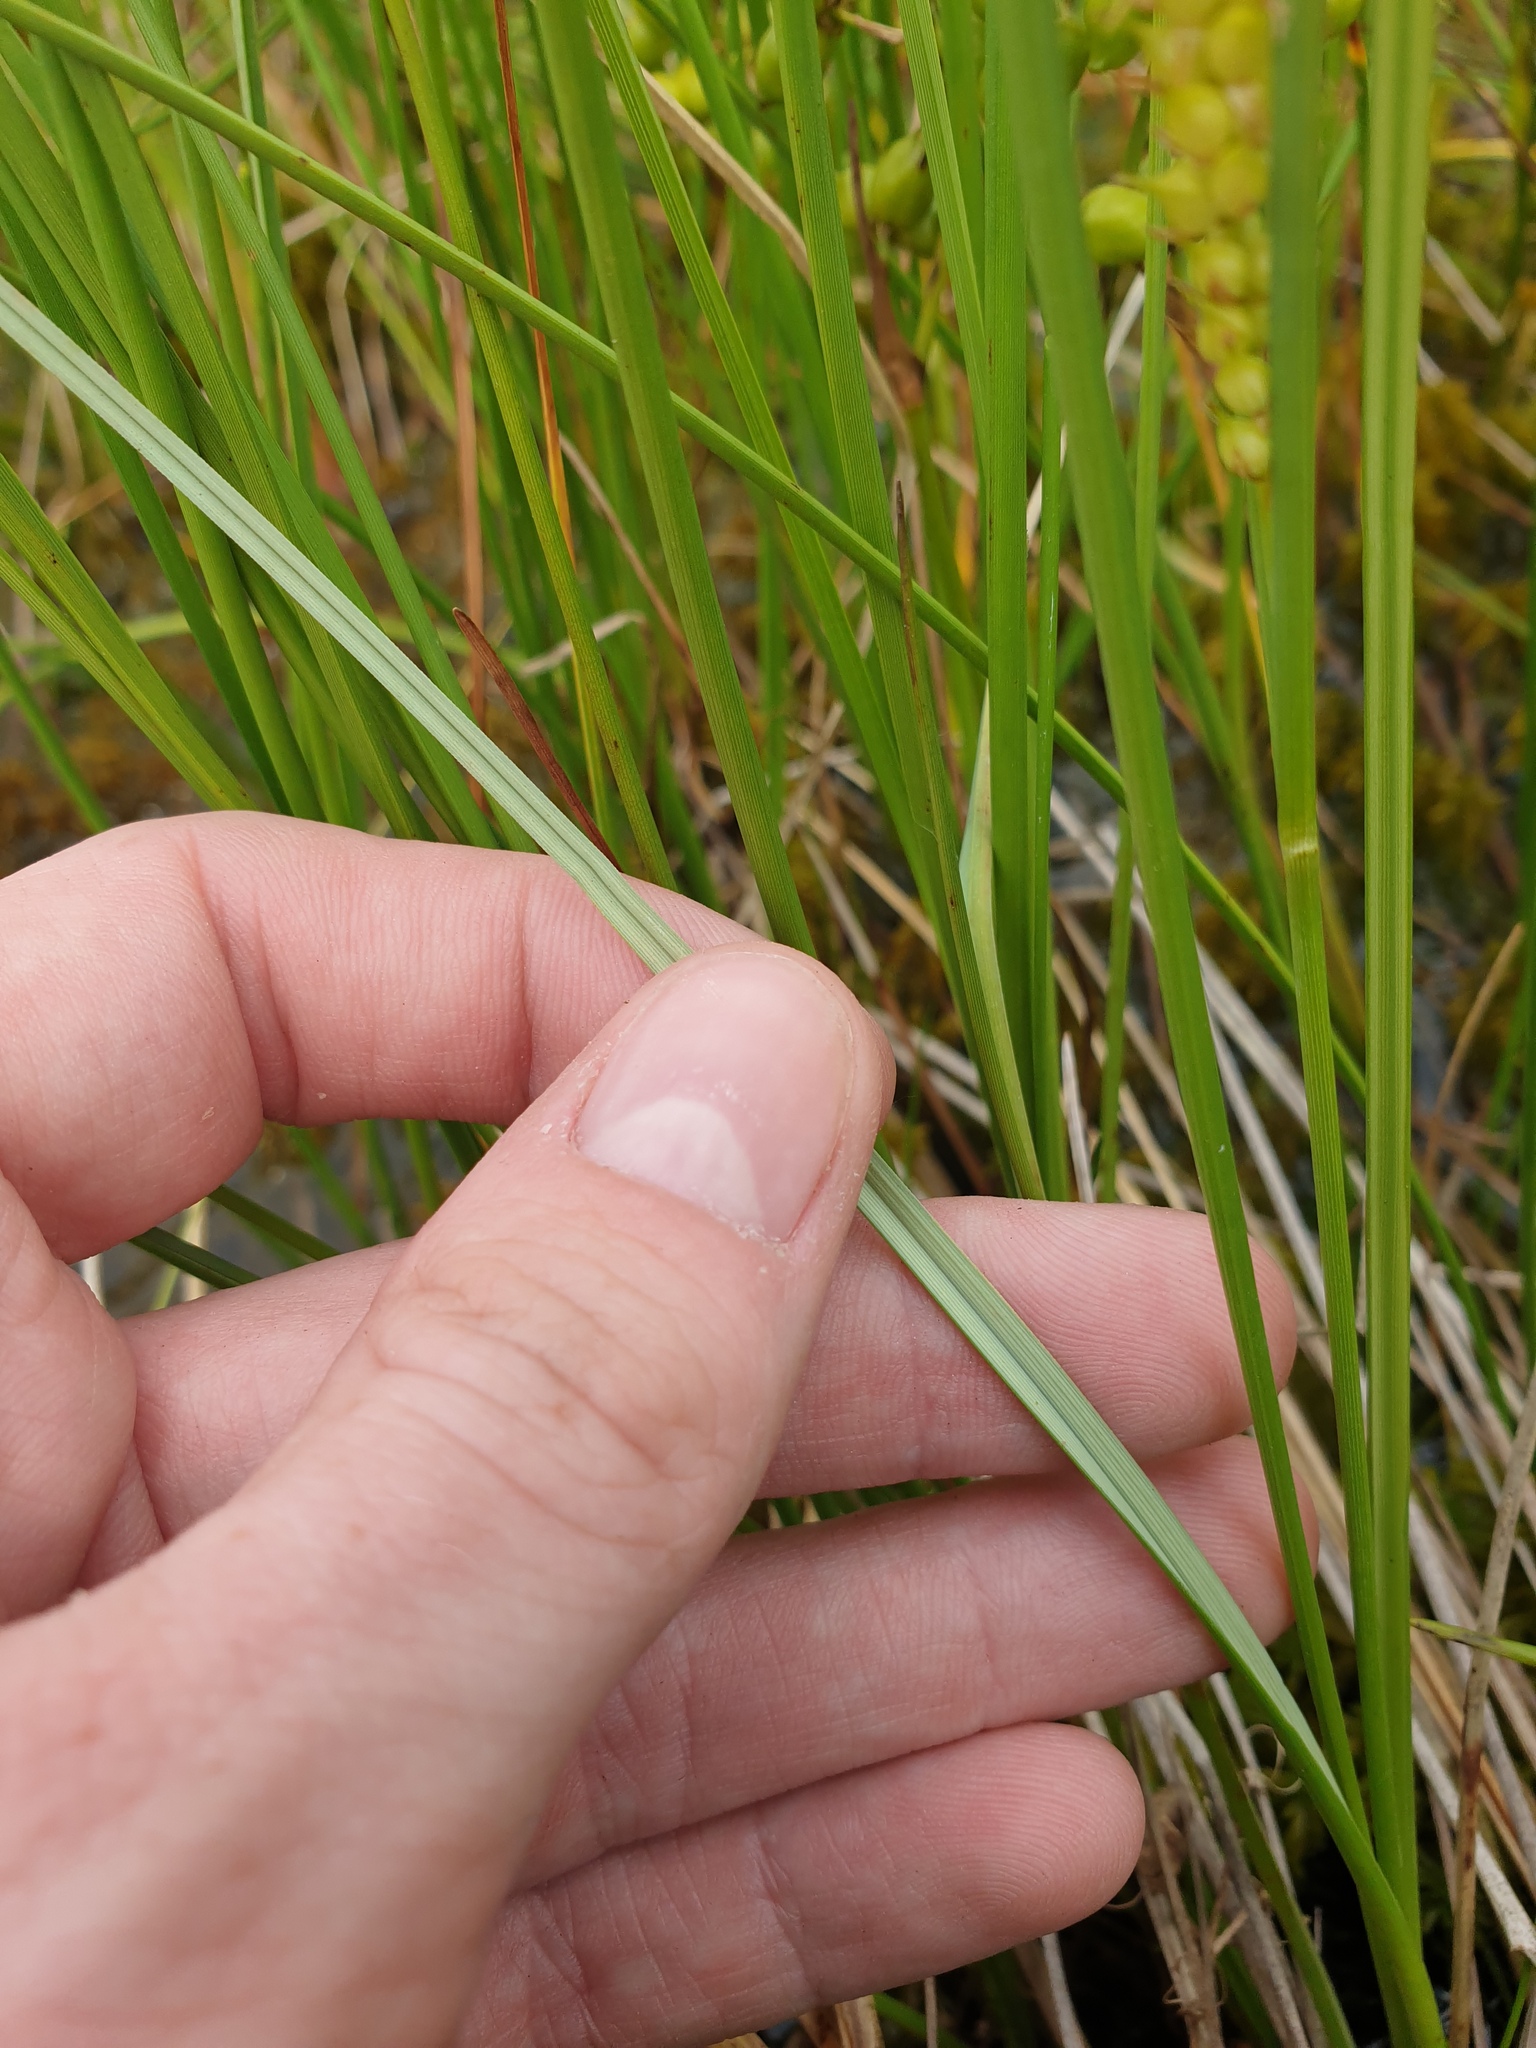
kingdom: Plantae
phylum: Tracheophyta
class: Liliopsida
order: Poales
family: Cyperaceae
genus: Carex
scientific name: Carex rostrata
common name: Bottle sedge
